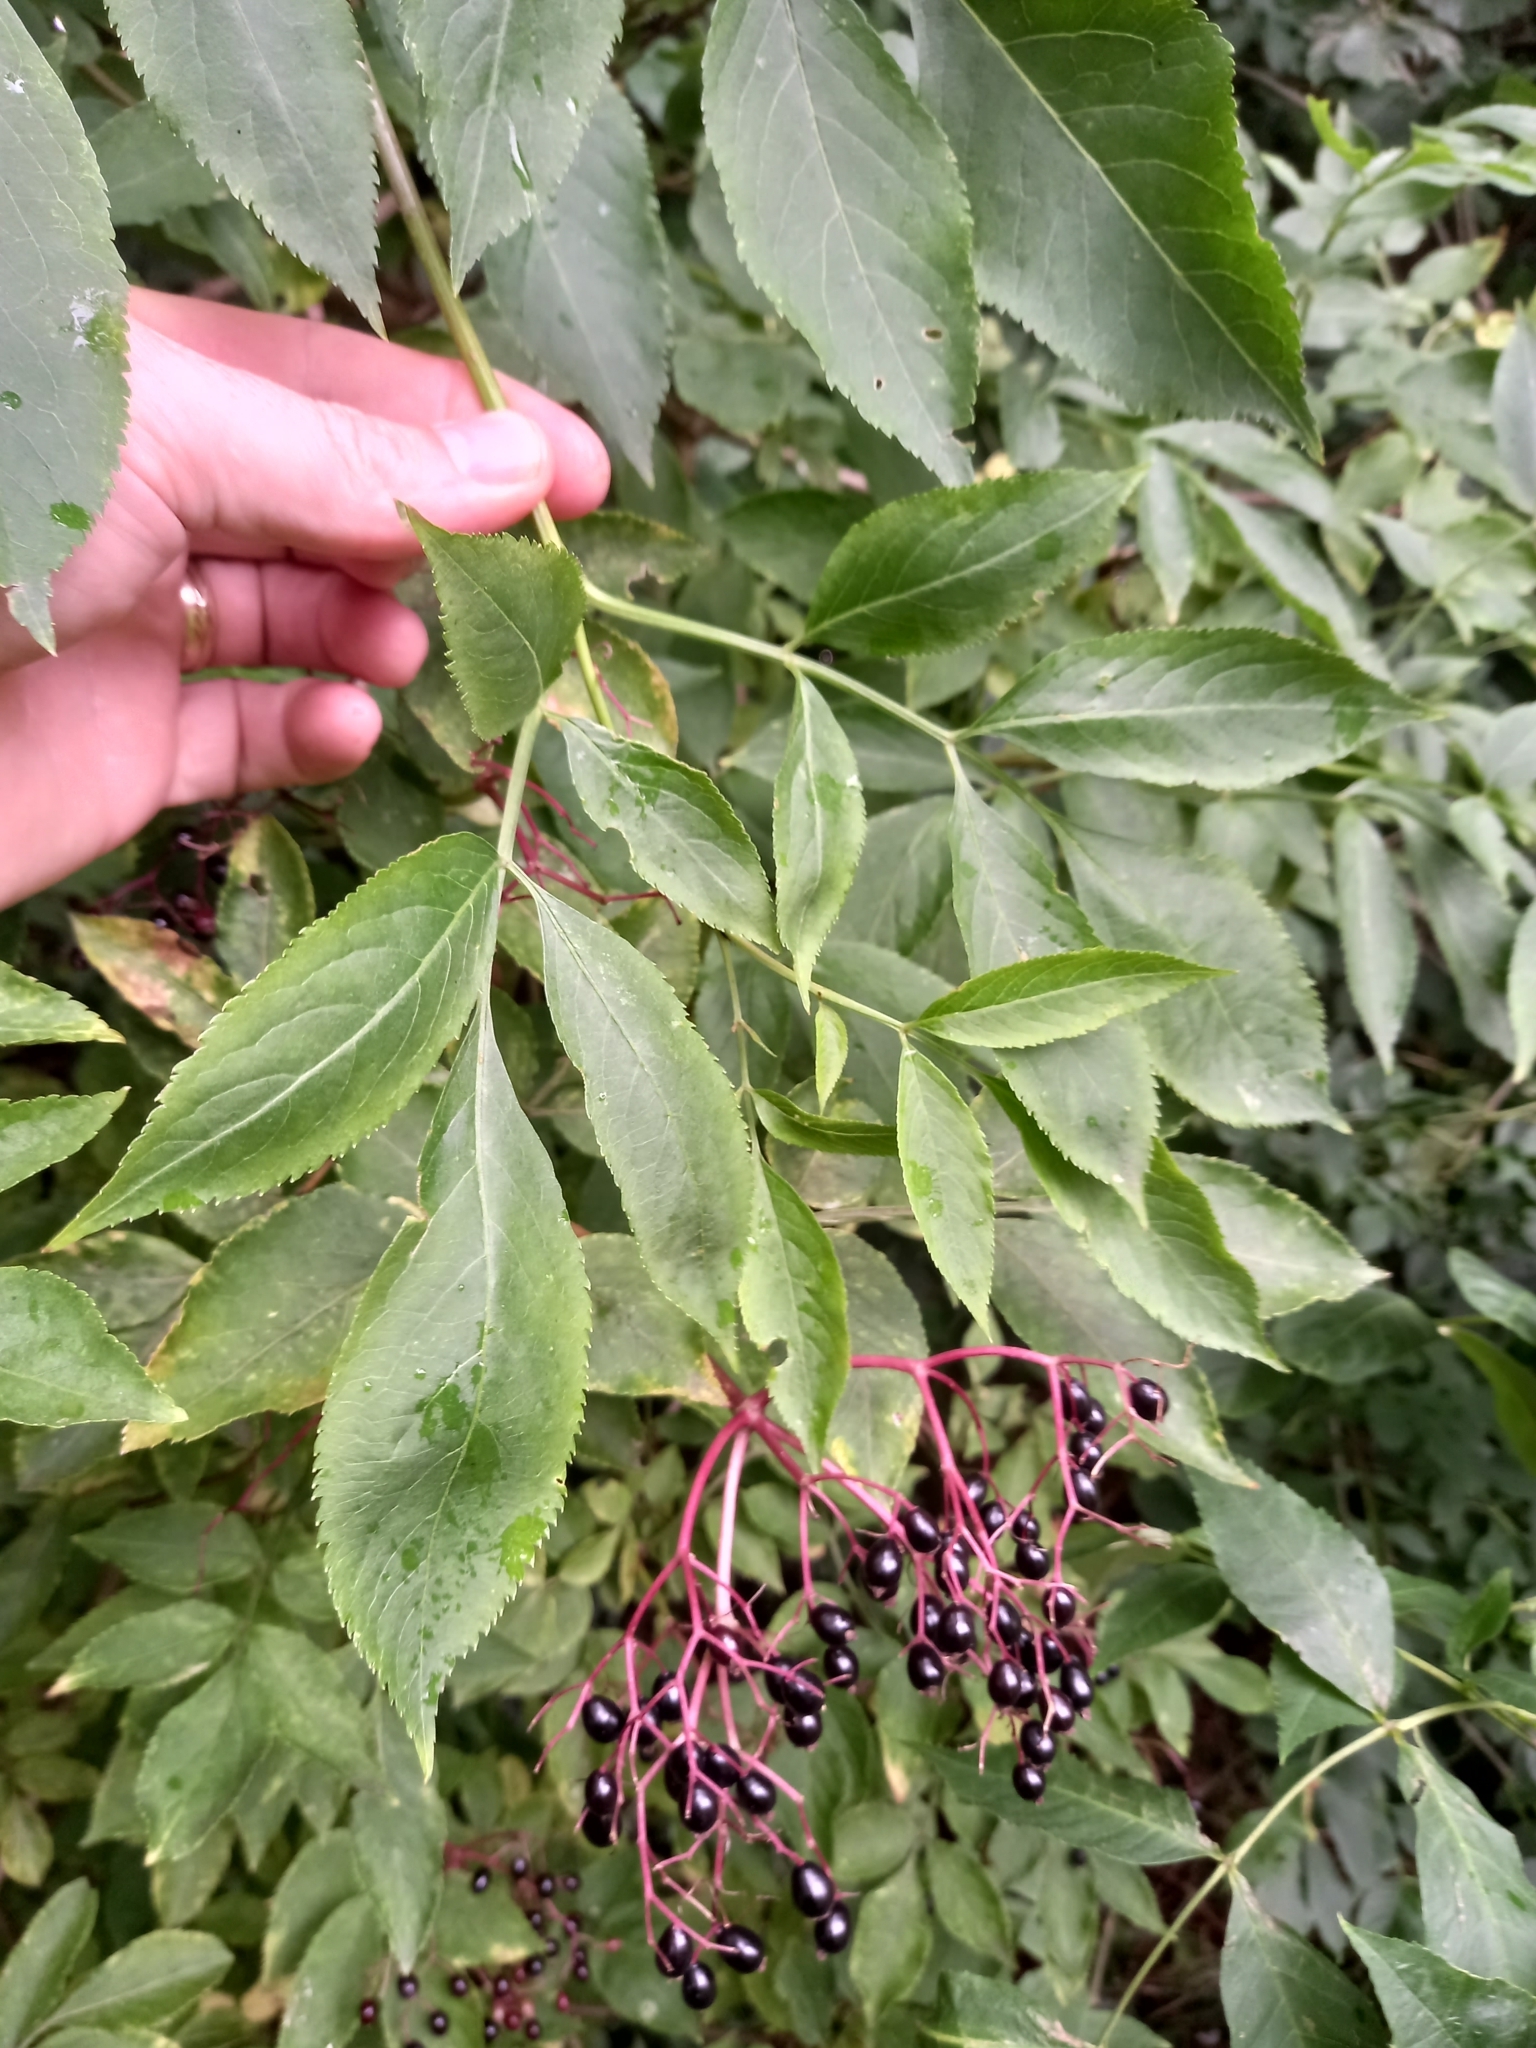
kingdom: Plantae
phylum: Tracheophyta
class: Magnoliopsida
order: Dipsacales
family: Viburnaceae
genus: Sambucus
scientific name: Sambucus nigra
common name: Elder
